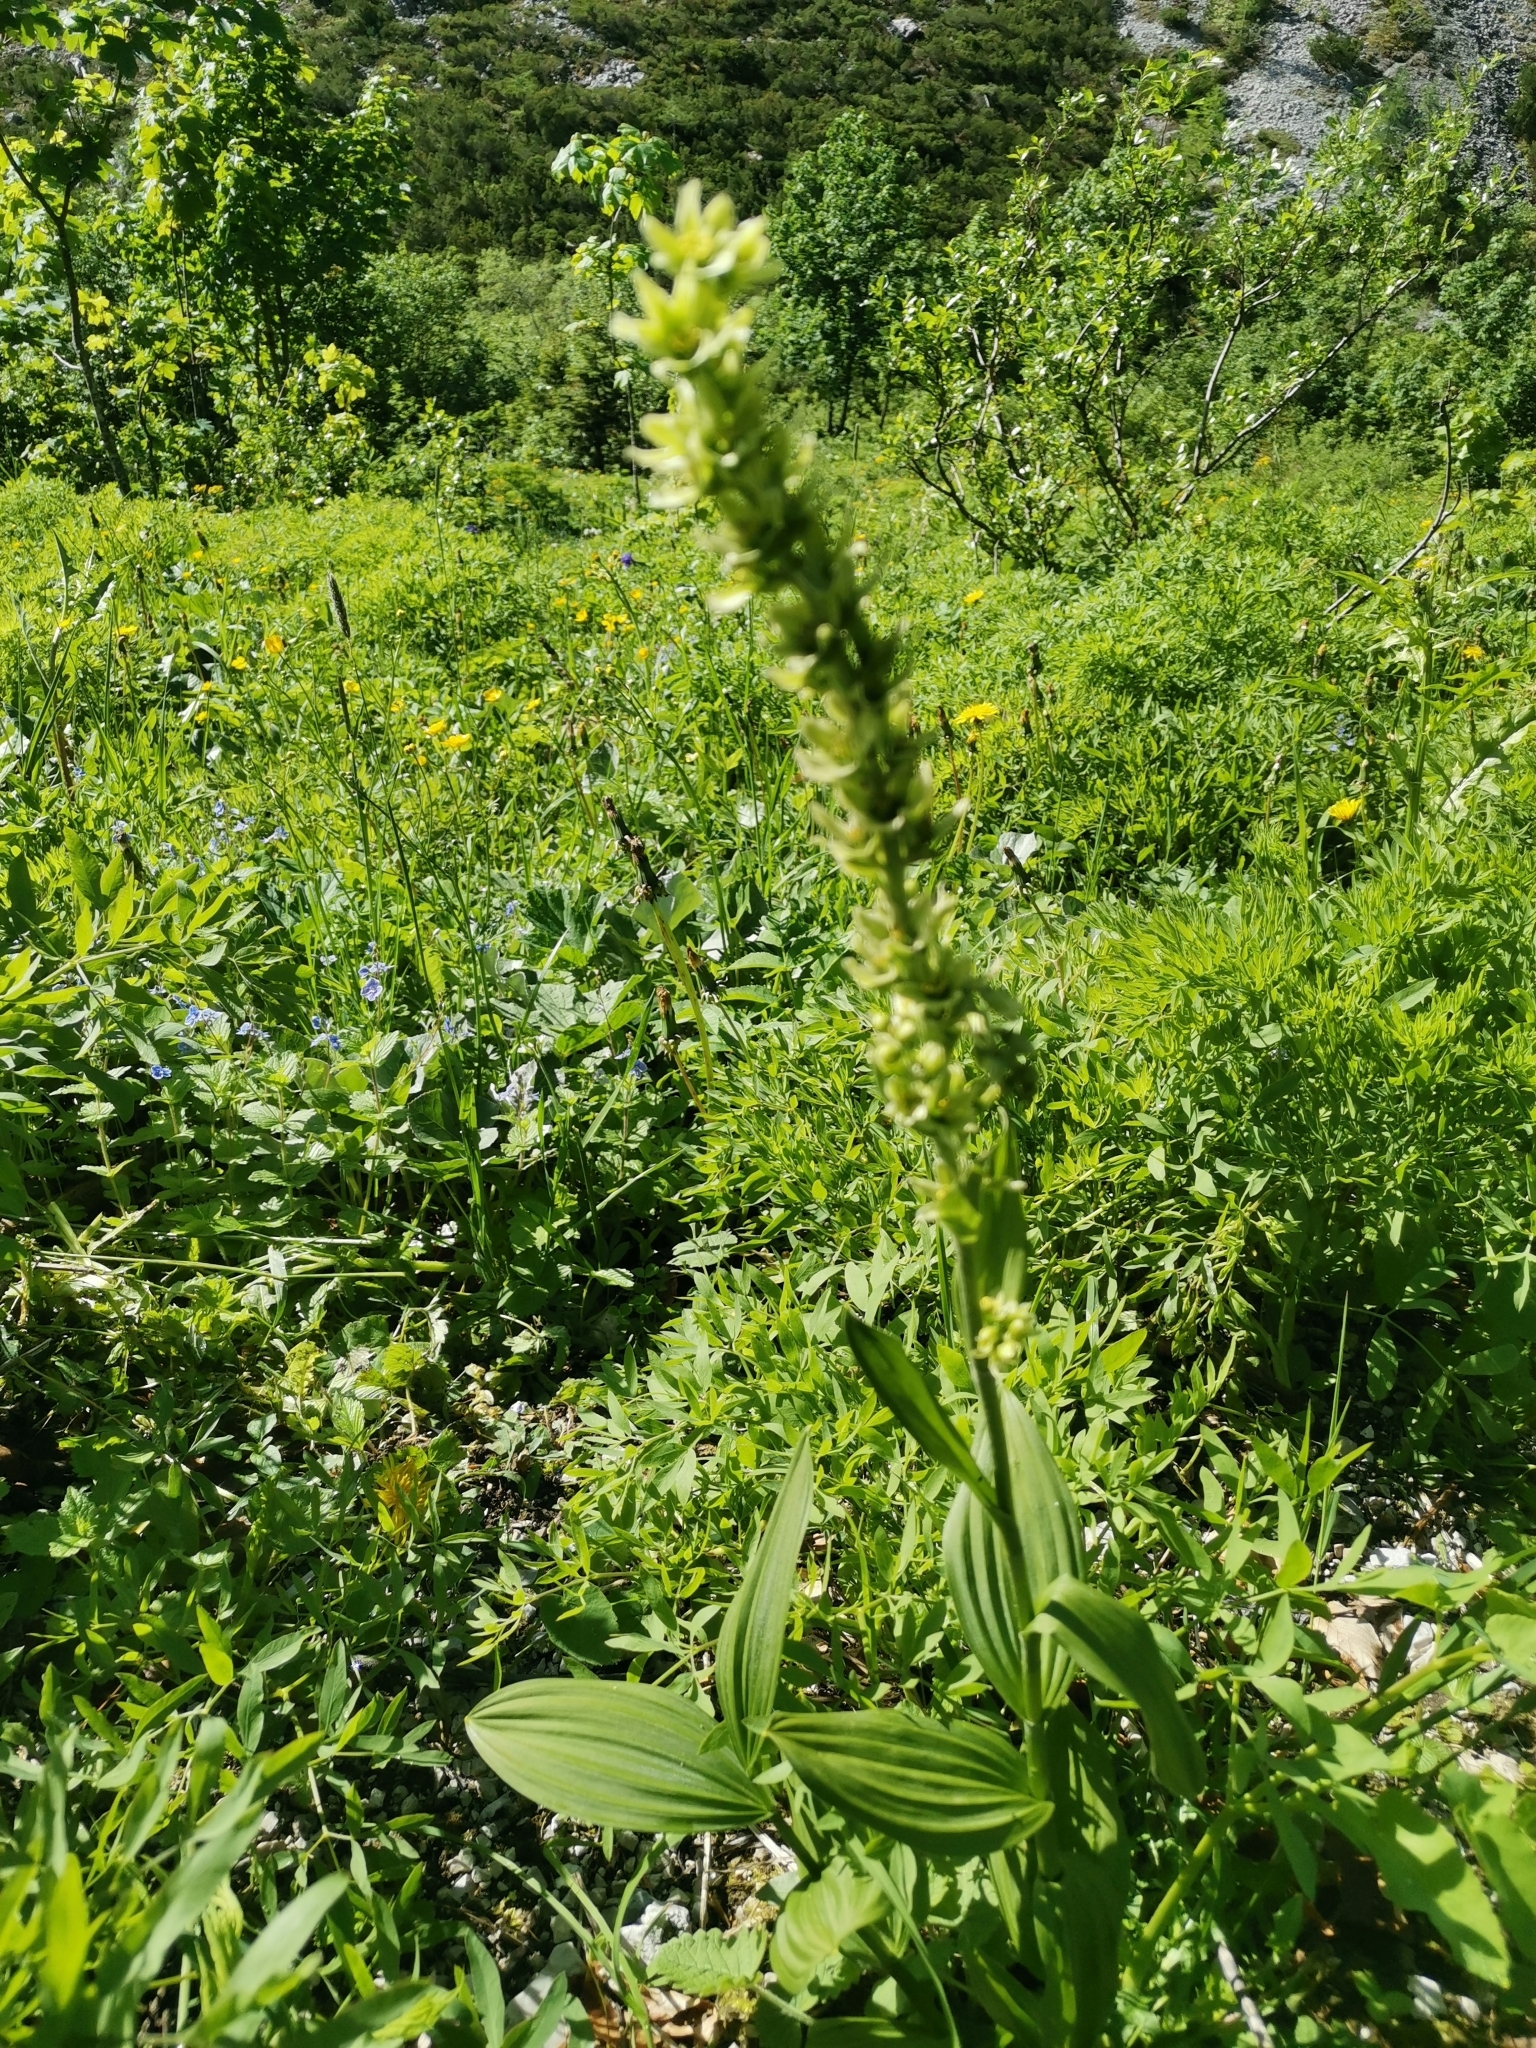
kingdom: Plantae
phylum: Tracheophyta
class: Liliopsida
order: Liliales
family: Melanthiaceae
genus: Veratrum
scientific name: Veratrum lobelianum
